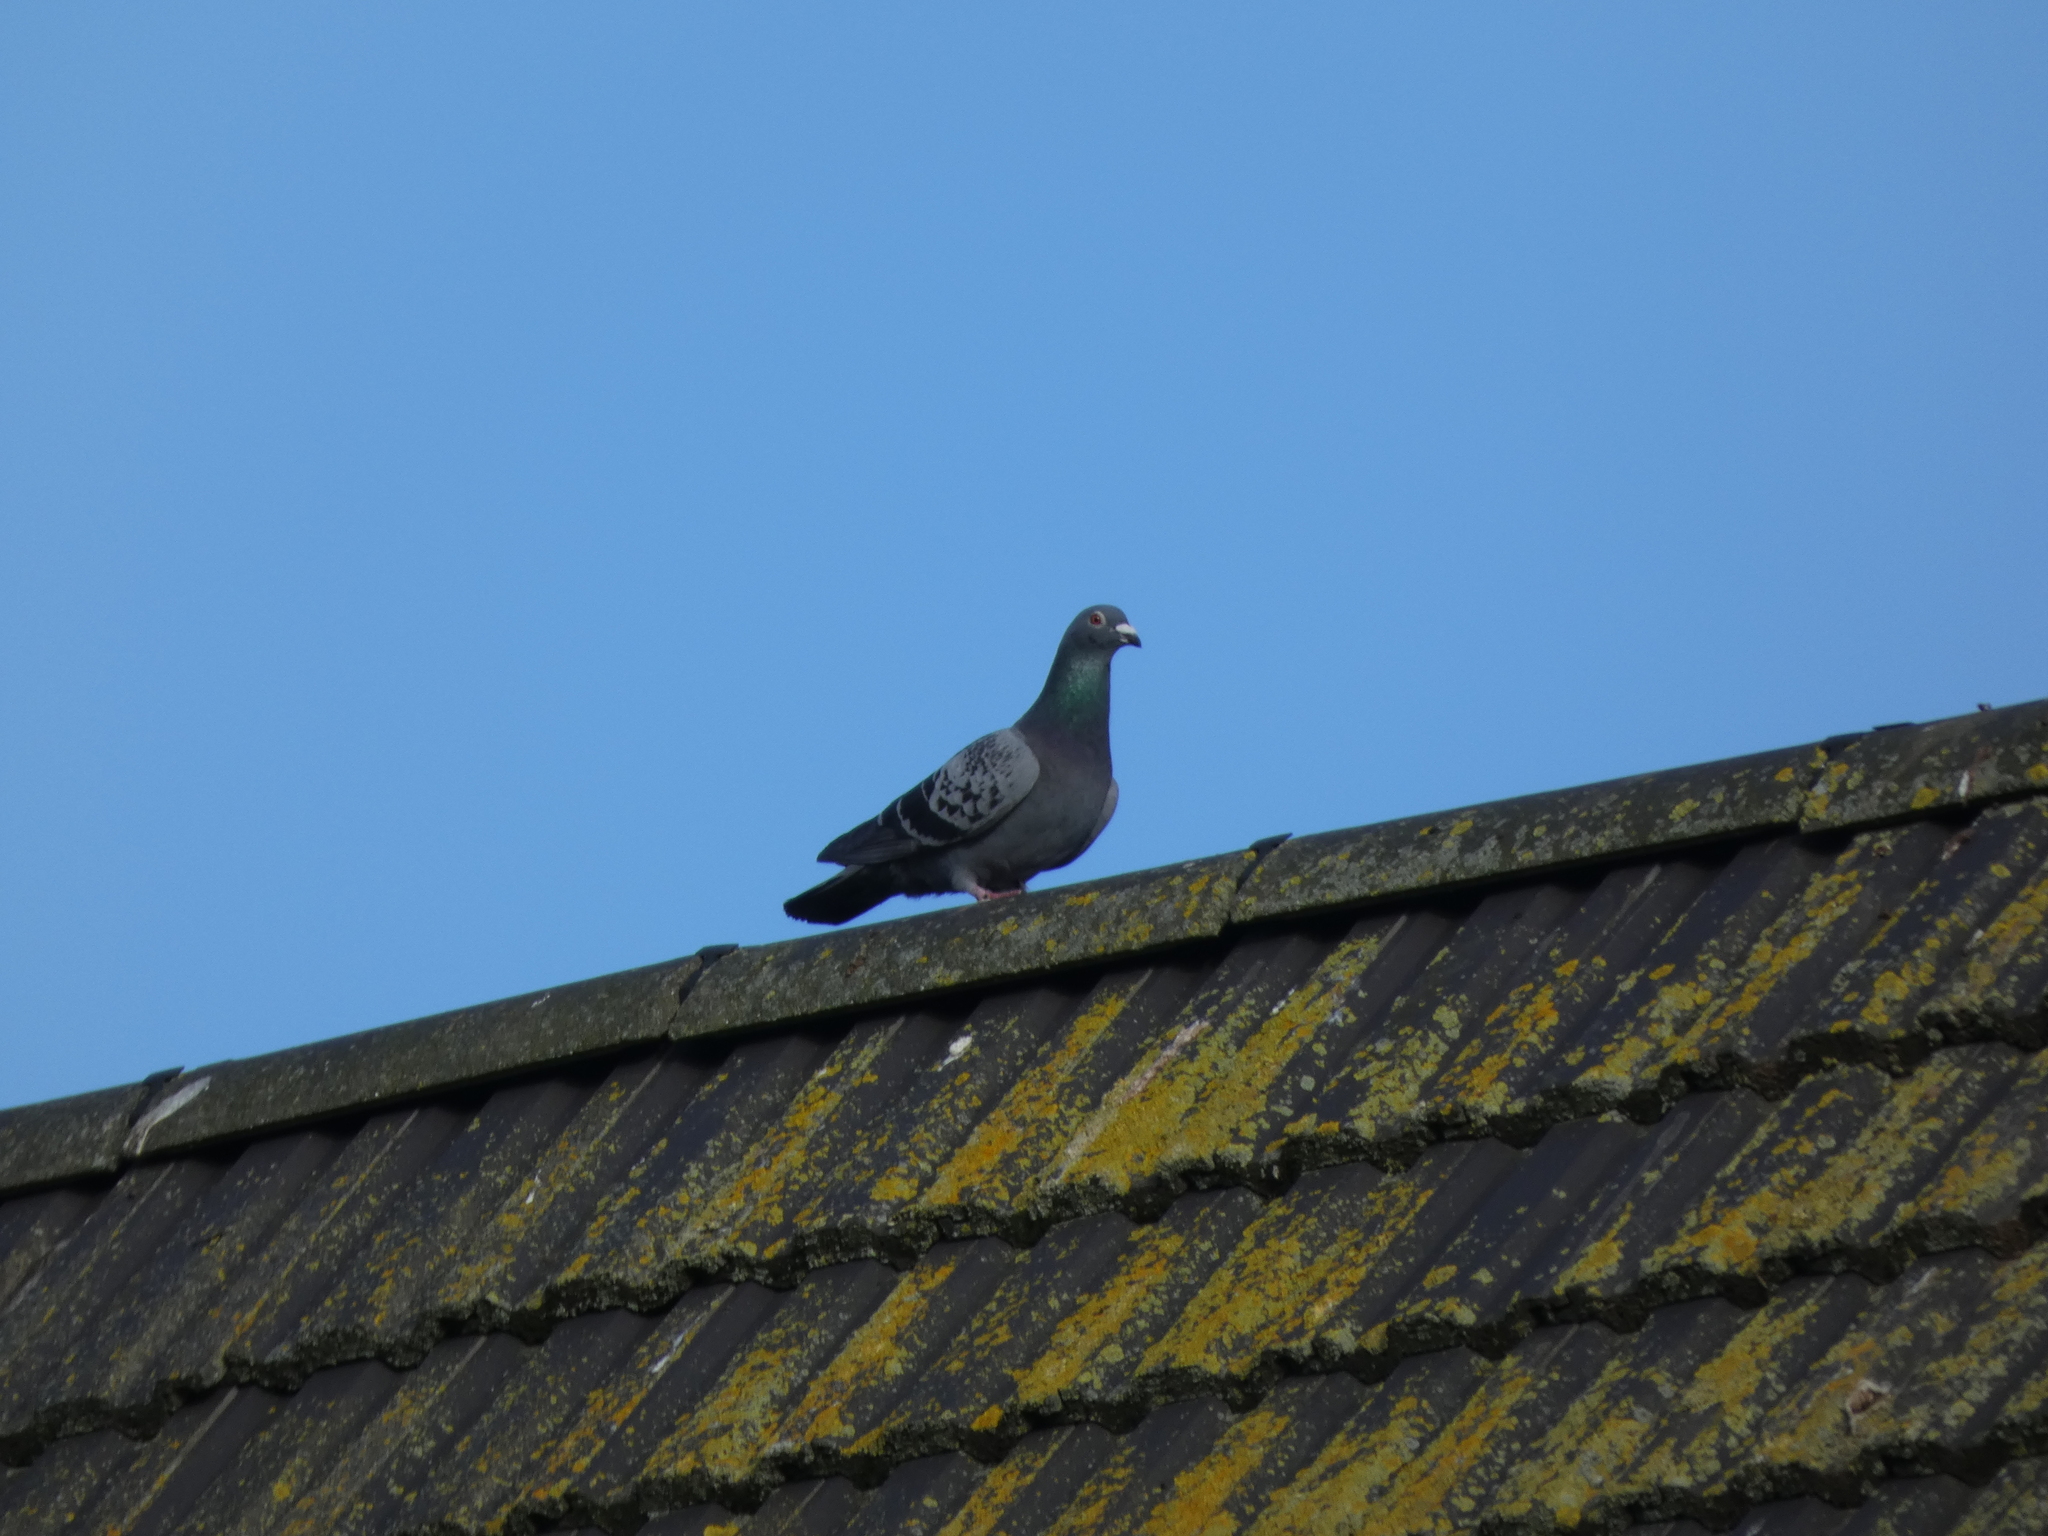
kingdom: Animalia
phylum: Chordata
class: Aves
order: Columbiformes
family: Columbidae
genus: Columba
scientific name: Columba livia
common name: Rock pigeon
